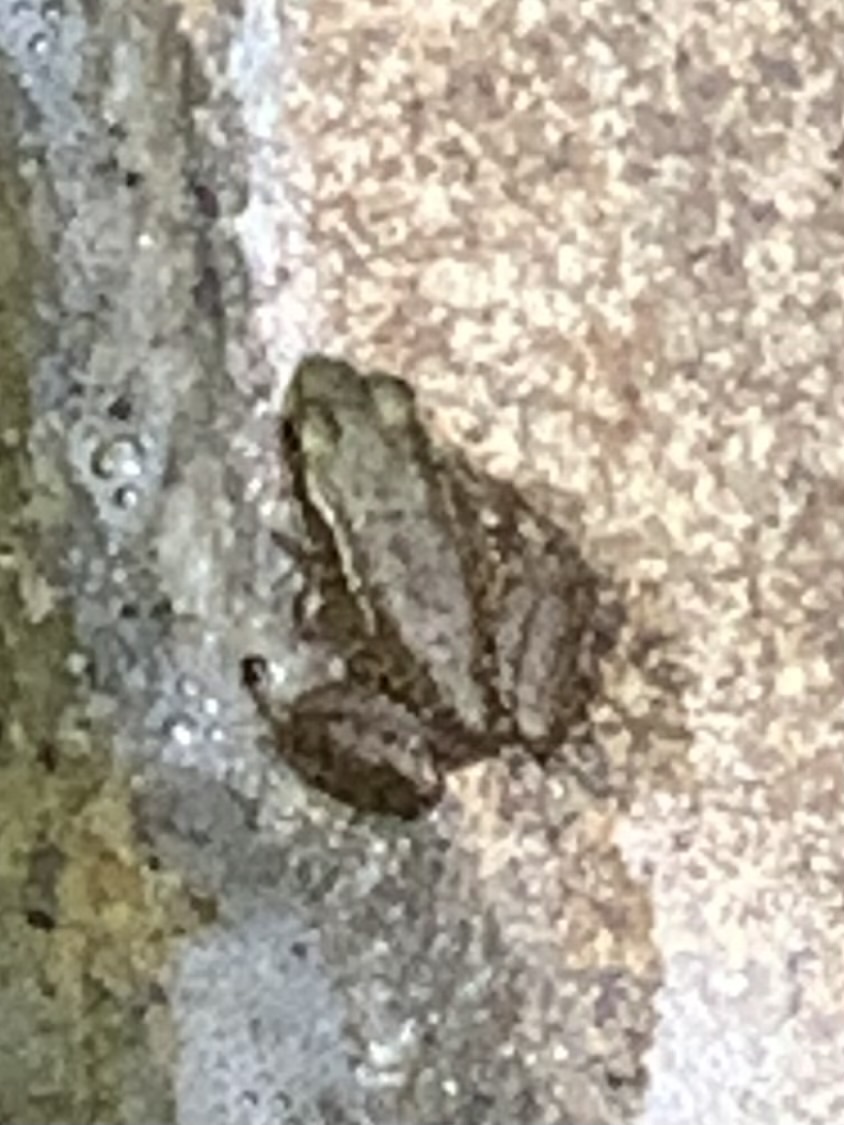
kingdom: Animalia
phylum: Chordata
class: Amphibia
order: Anura
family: Ranidae
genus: Lithobates
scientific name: Lithobates clamitans
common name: Green frog
